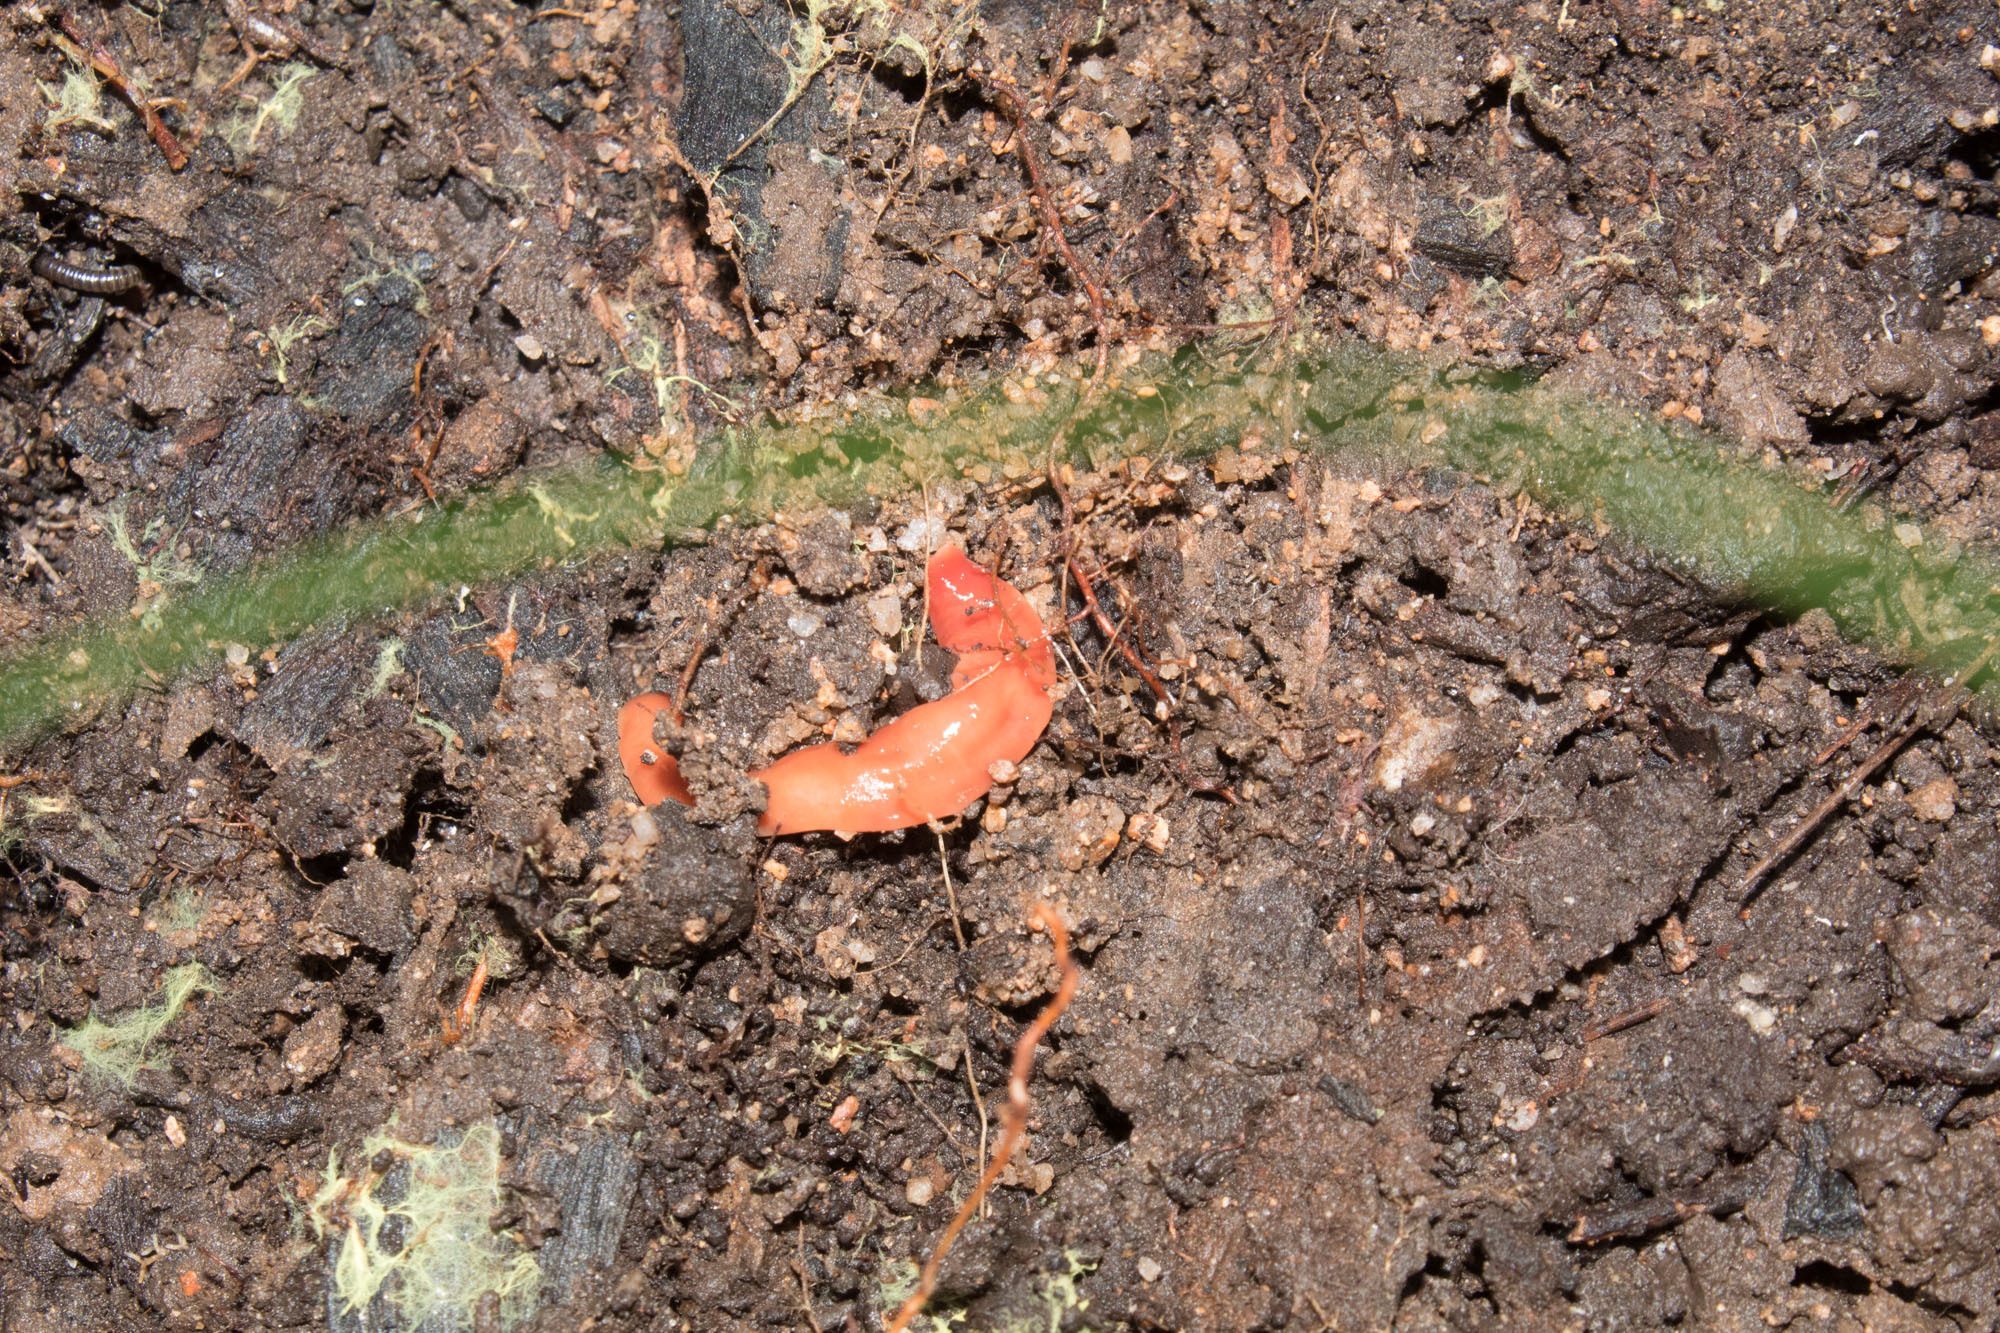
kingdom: Animalia
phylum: Platyhelminthes
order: Tricladida
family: Geoplanidae
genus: Australoplana
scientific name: Australoplana alba
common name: Australian flatworm
